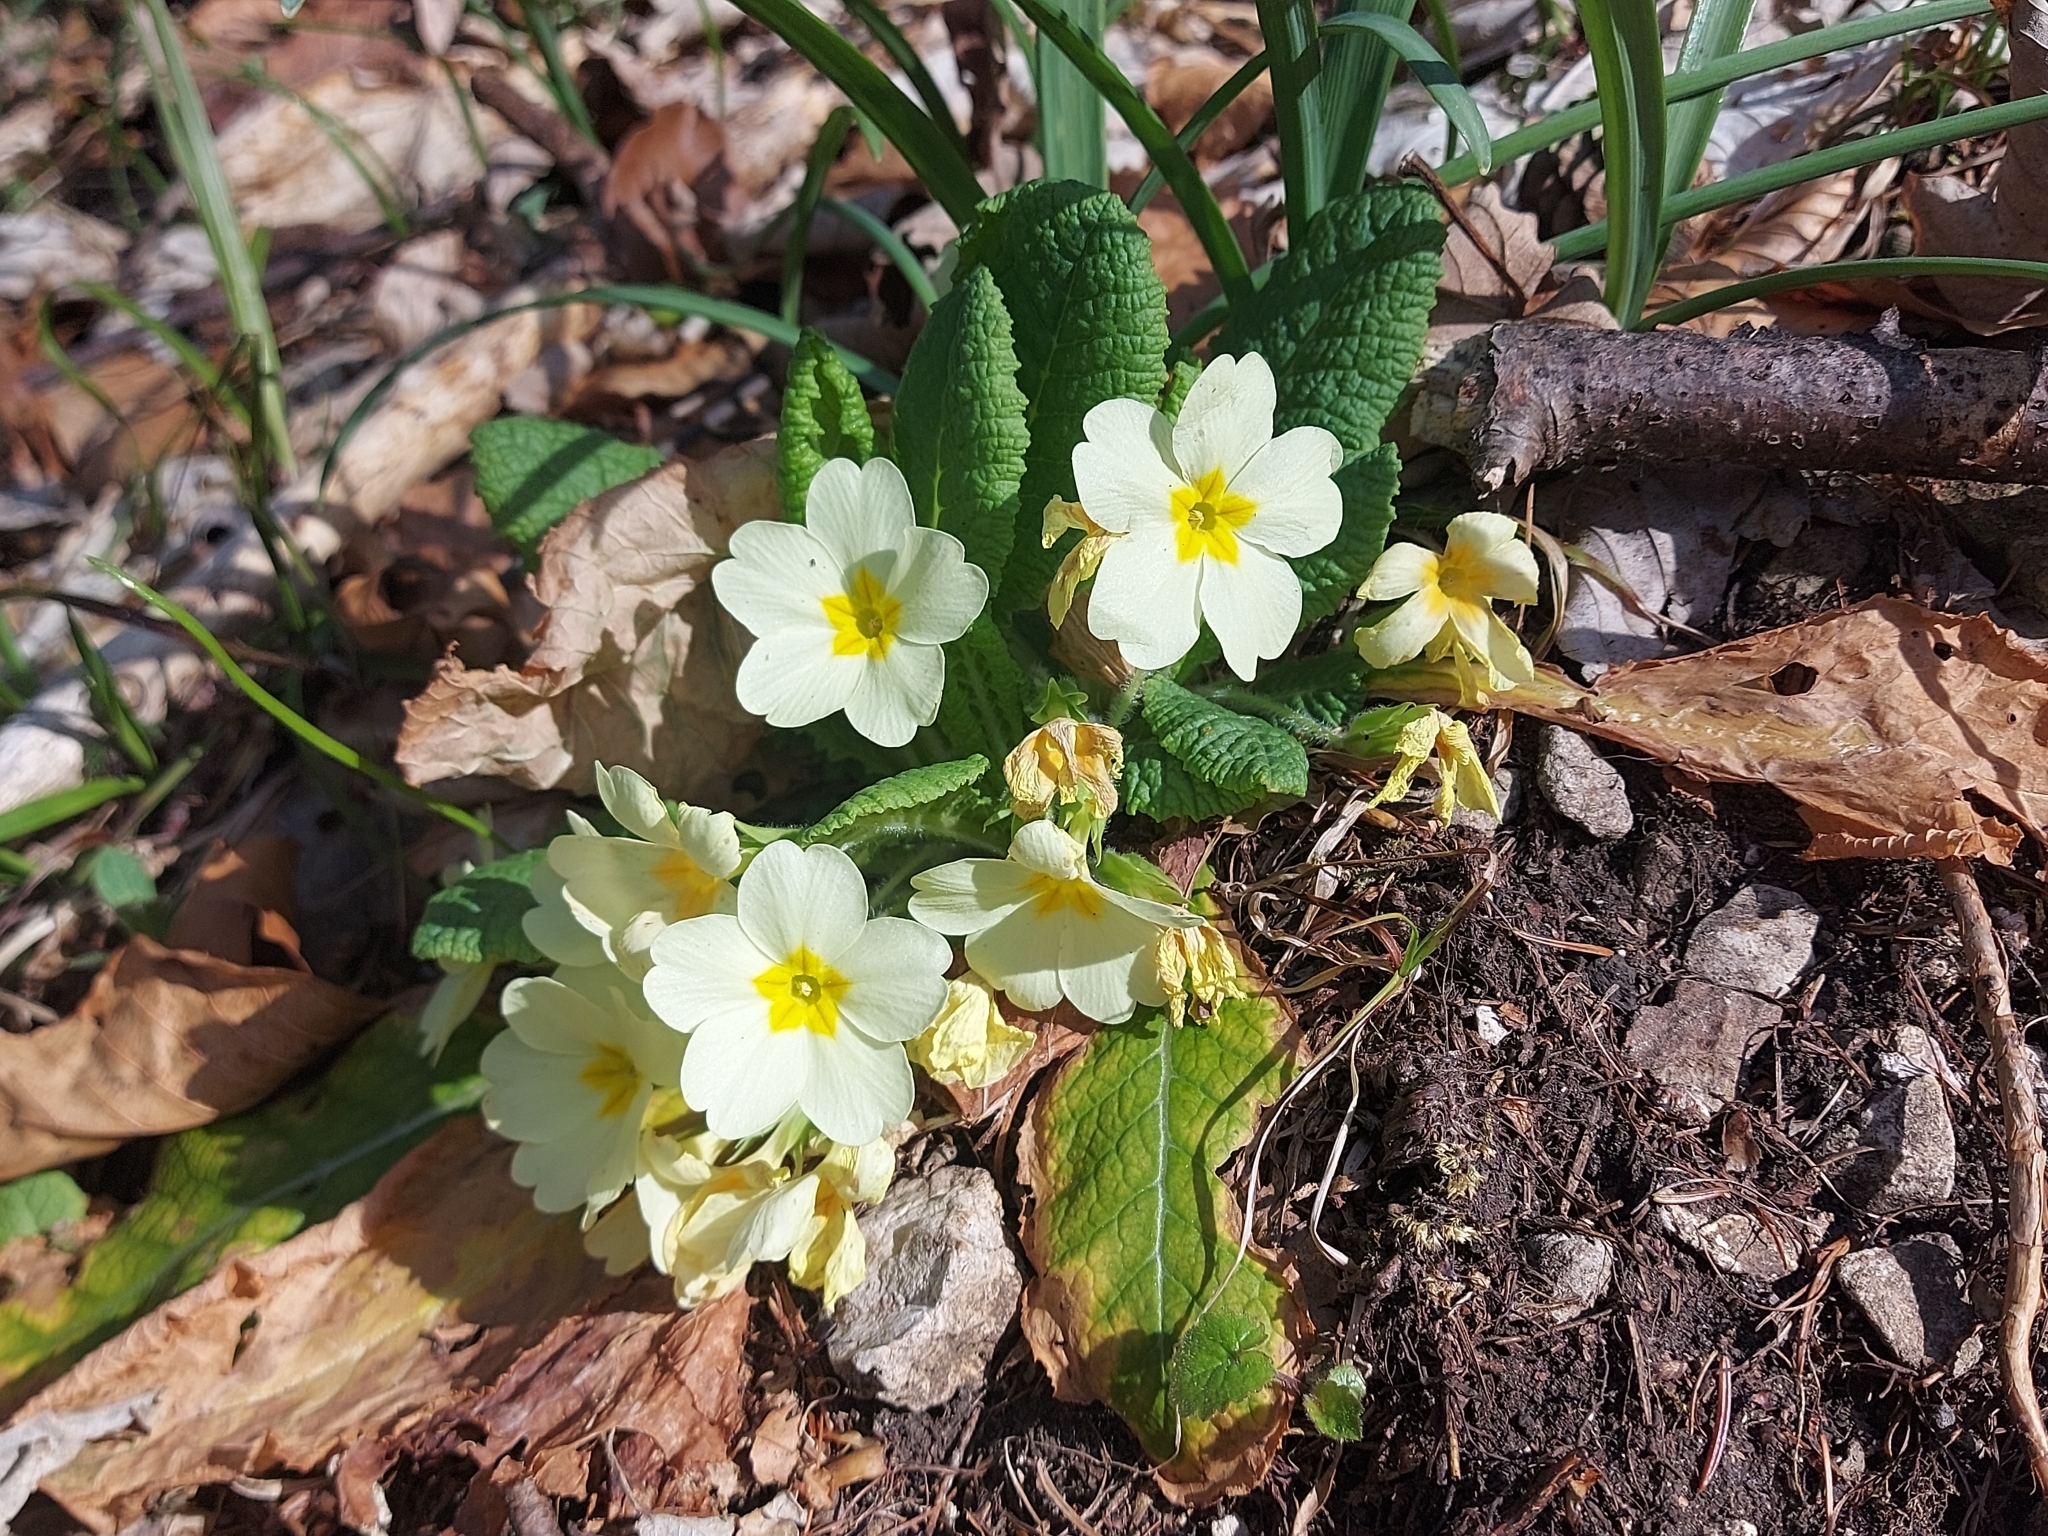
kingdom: Plantae
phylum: Tracheophyta
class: Magnoliopsida
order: Ericales
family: Primulaceae
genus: Primula
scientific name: Primula vulgaris
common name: Primrose
